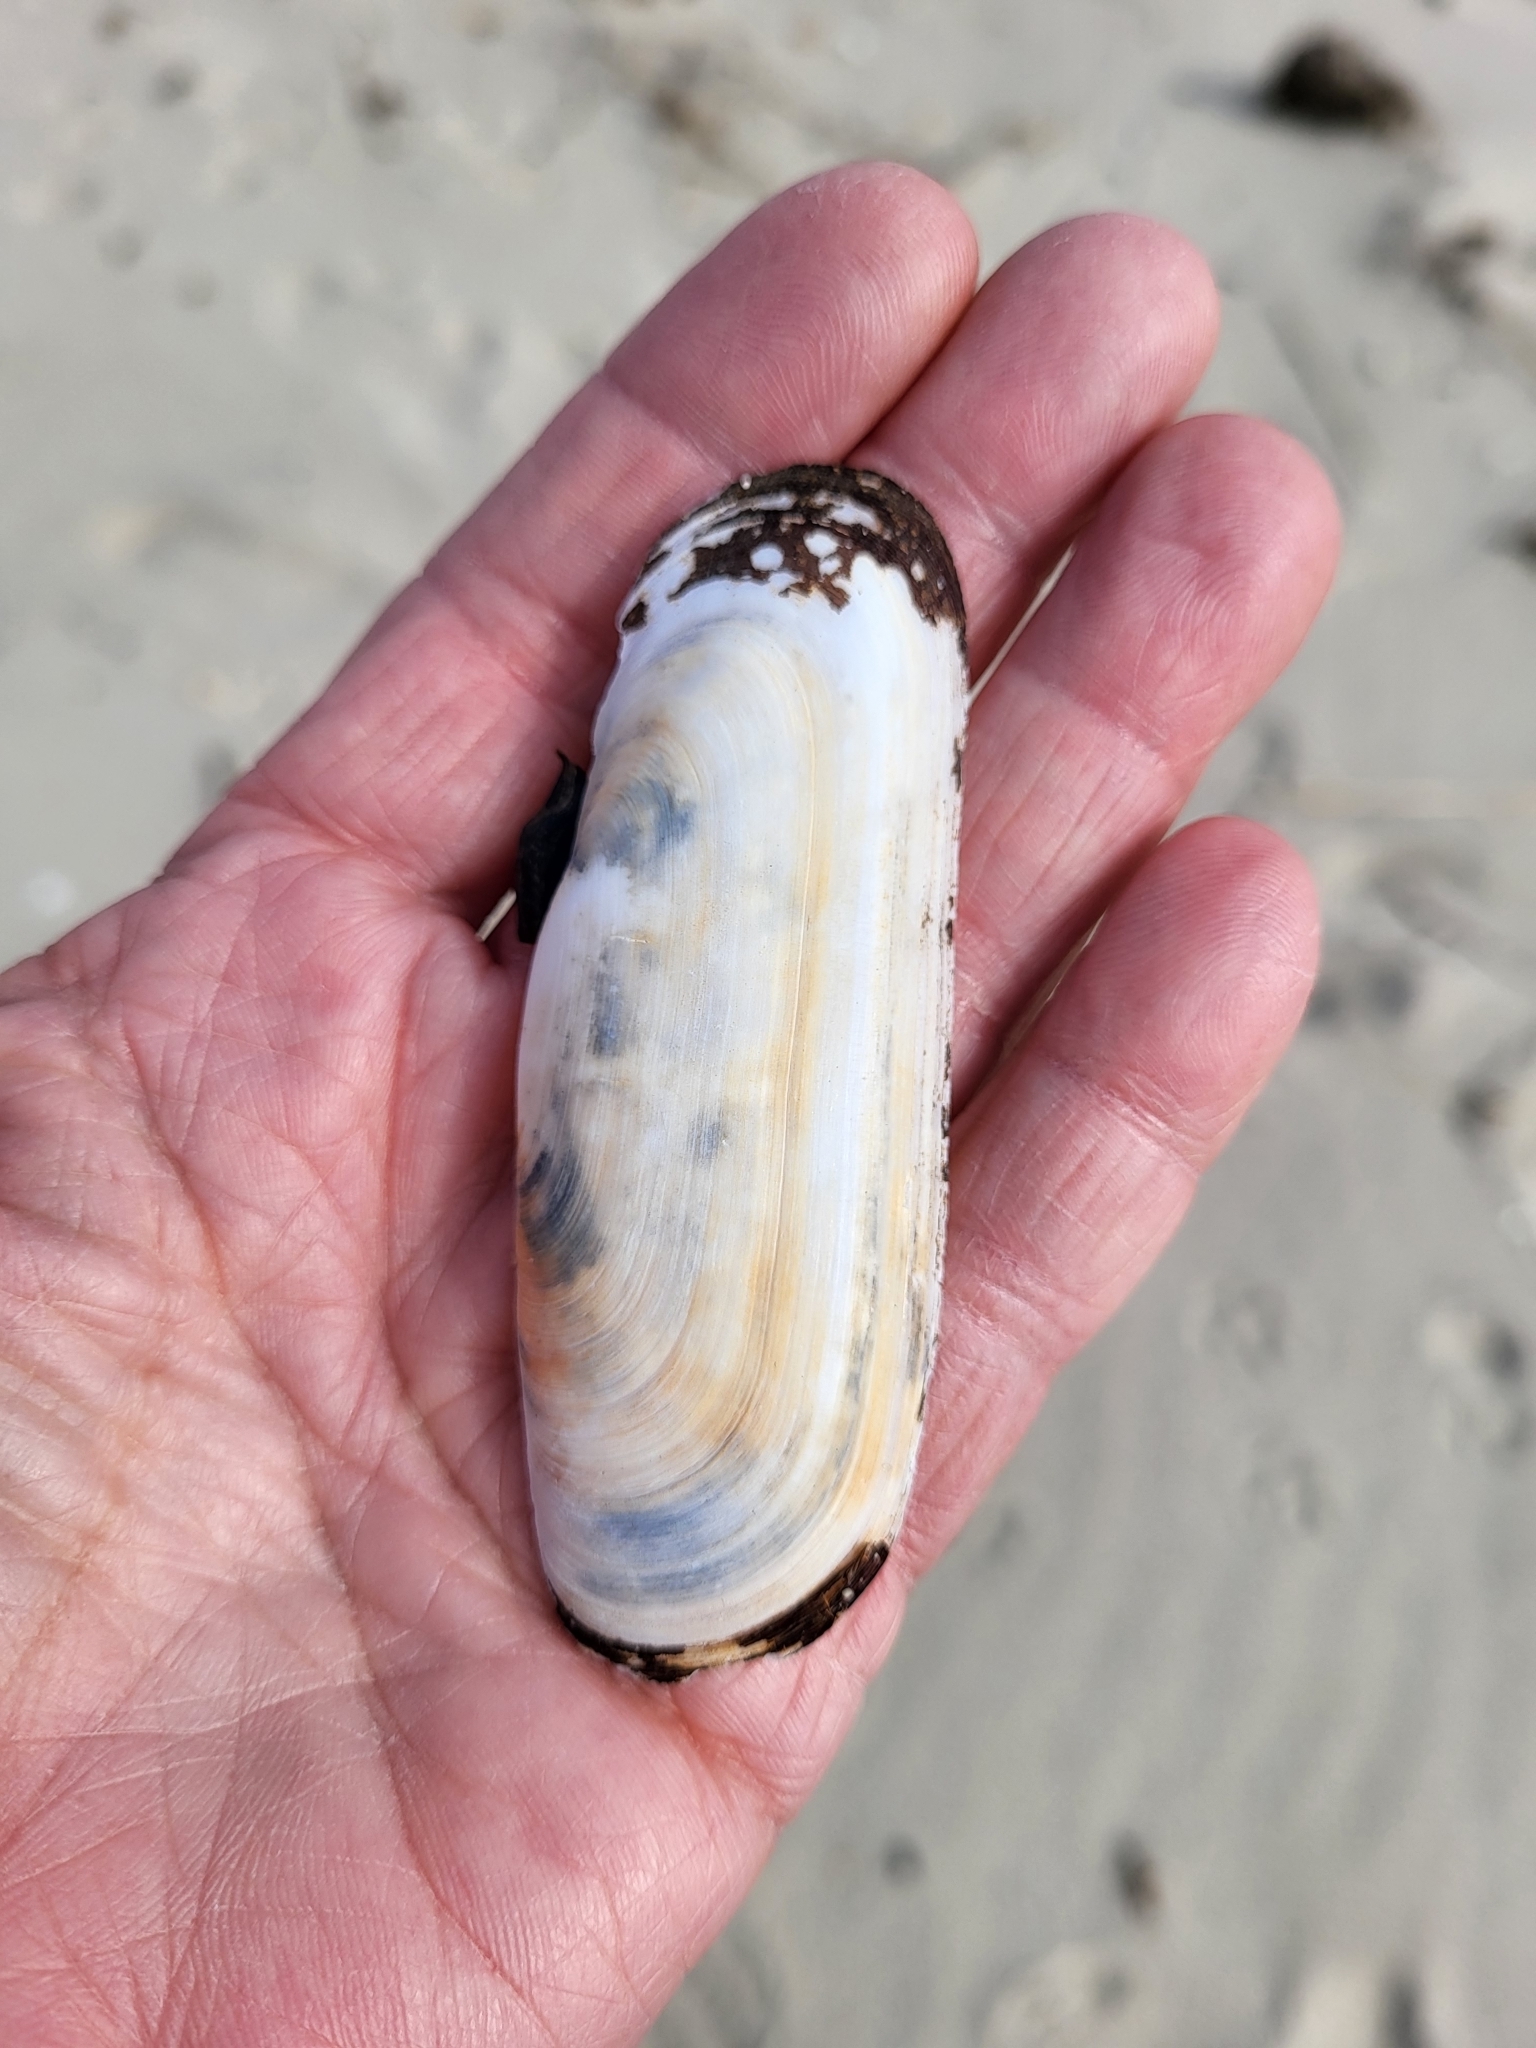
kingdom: Animalia
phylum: Mollusca
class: Bivalvia
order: Cardiida
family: Solecurtidae
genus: Tagelus
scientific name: Tagelus plebeius
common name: Stout tagelus
